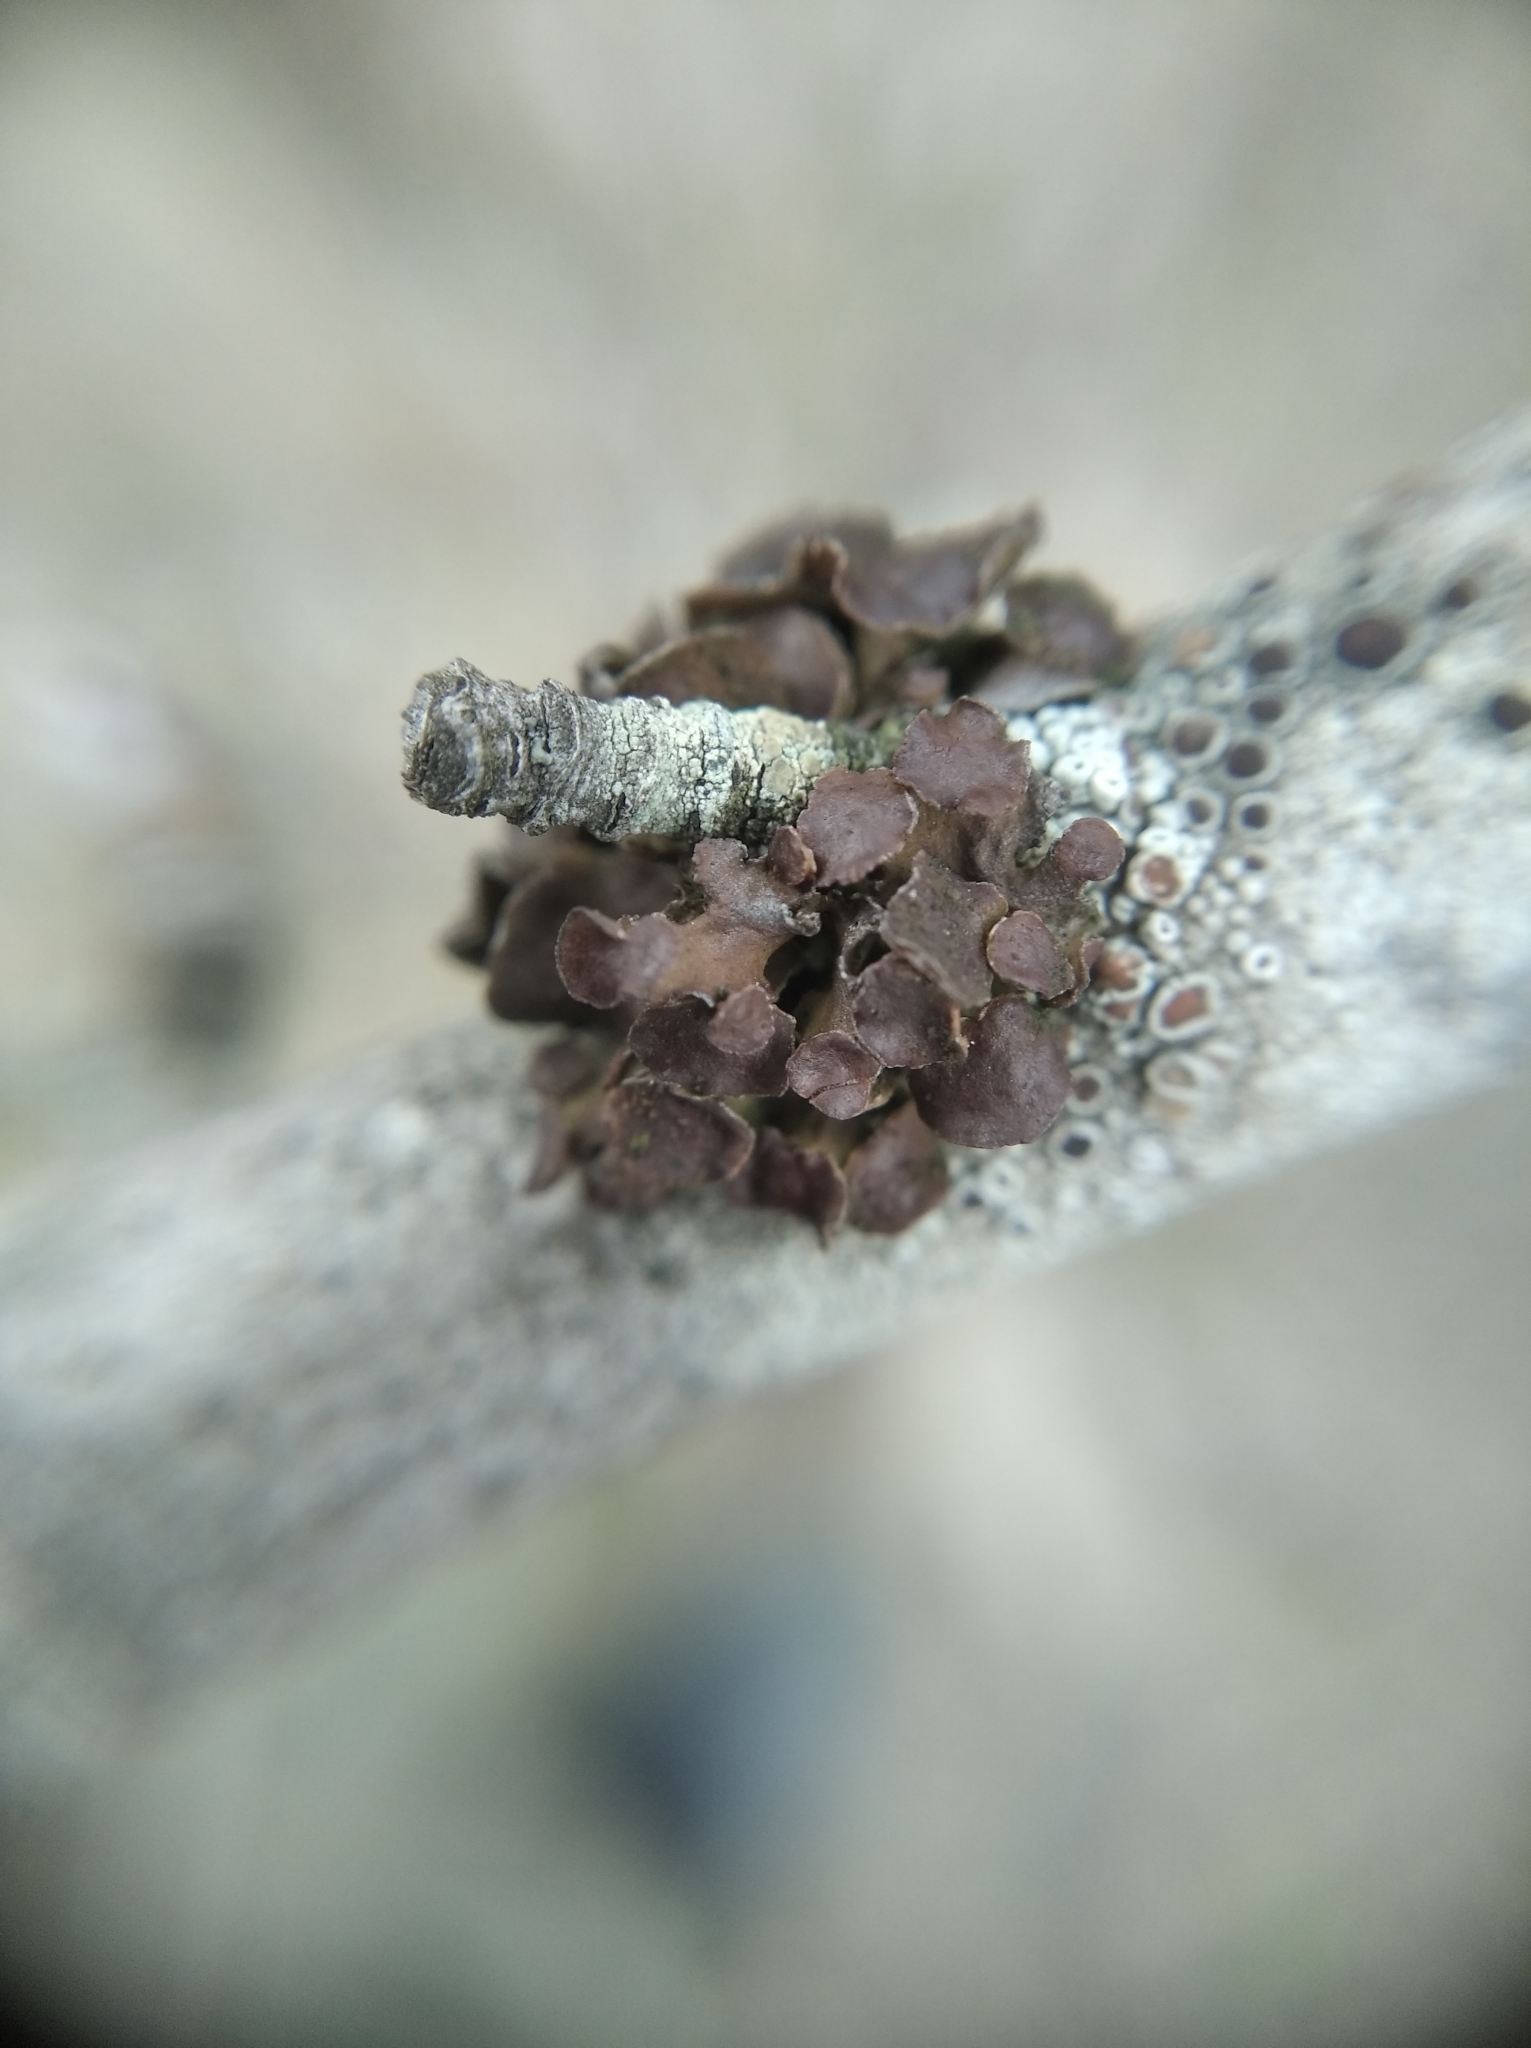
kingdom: Fungi
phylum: Ascomycota
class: Lecanoromycetes
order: Lecanorales
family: Parmeliaceae
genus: Cetraria
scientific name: Cetraria sepincola
